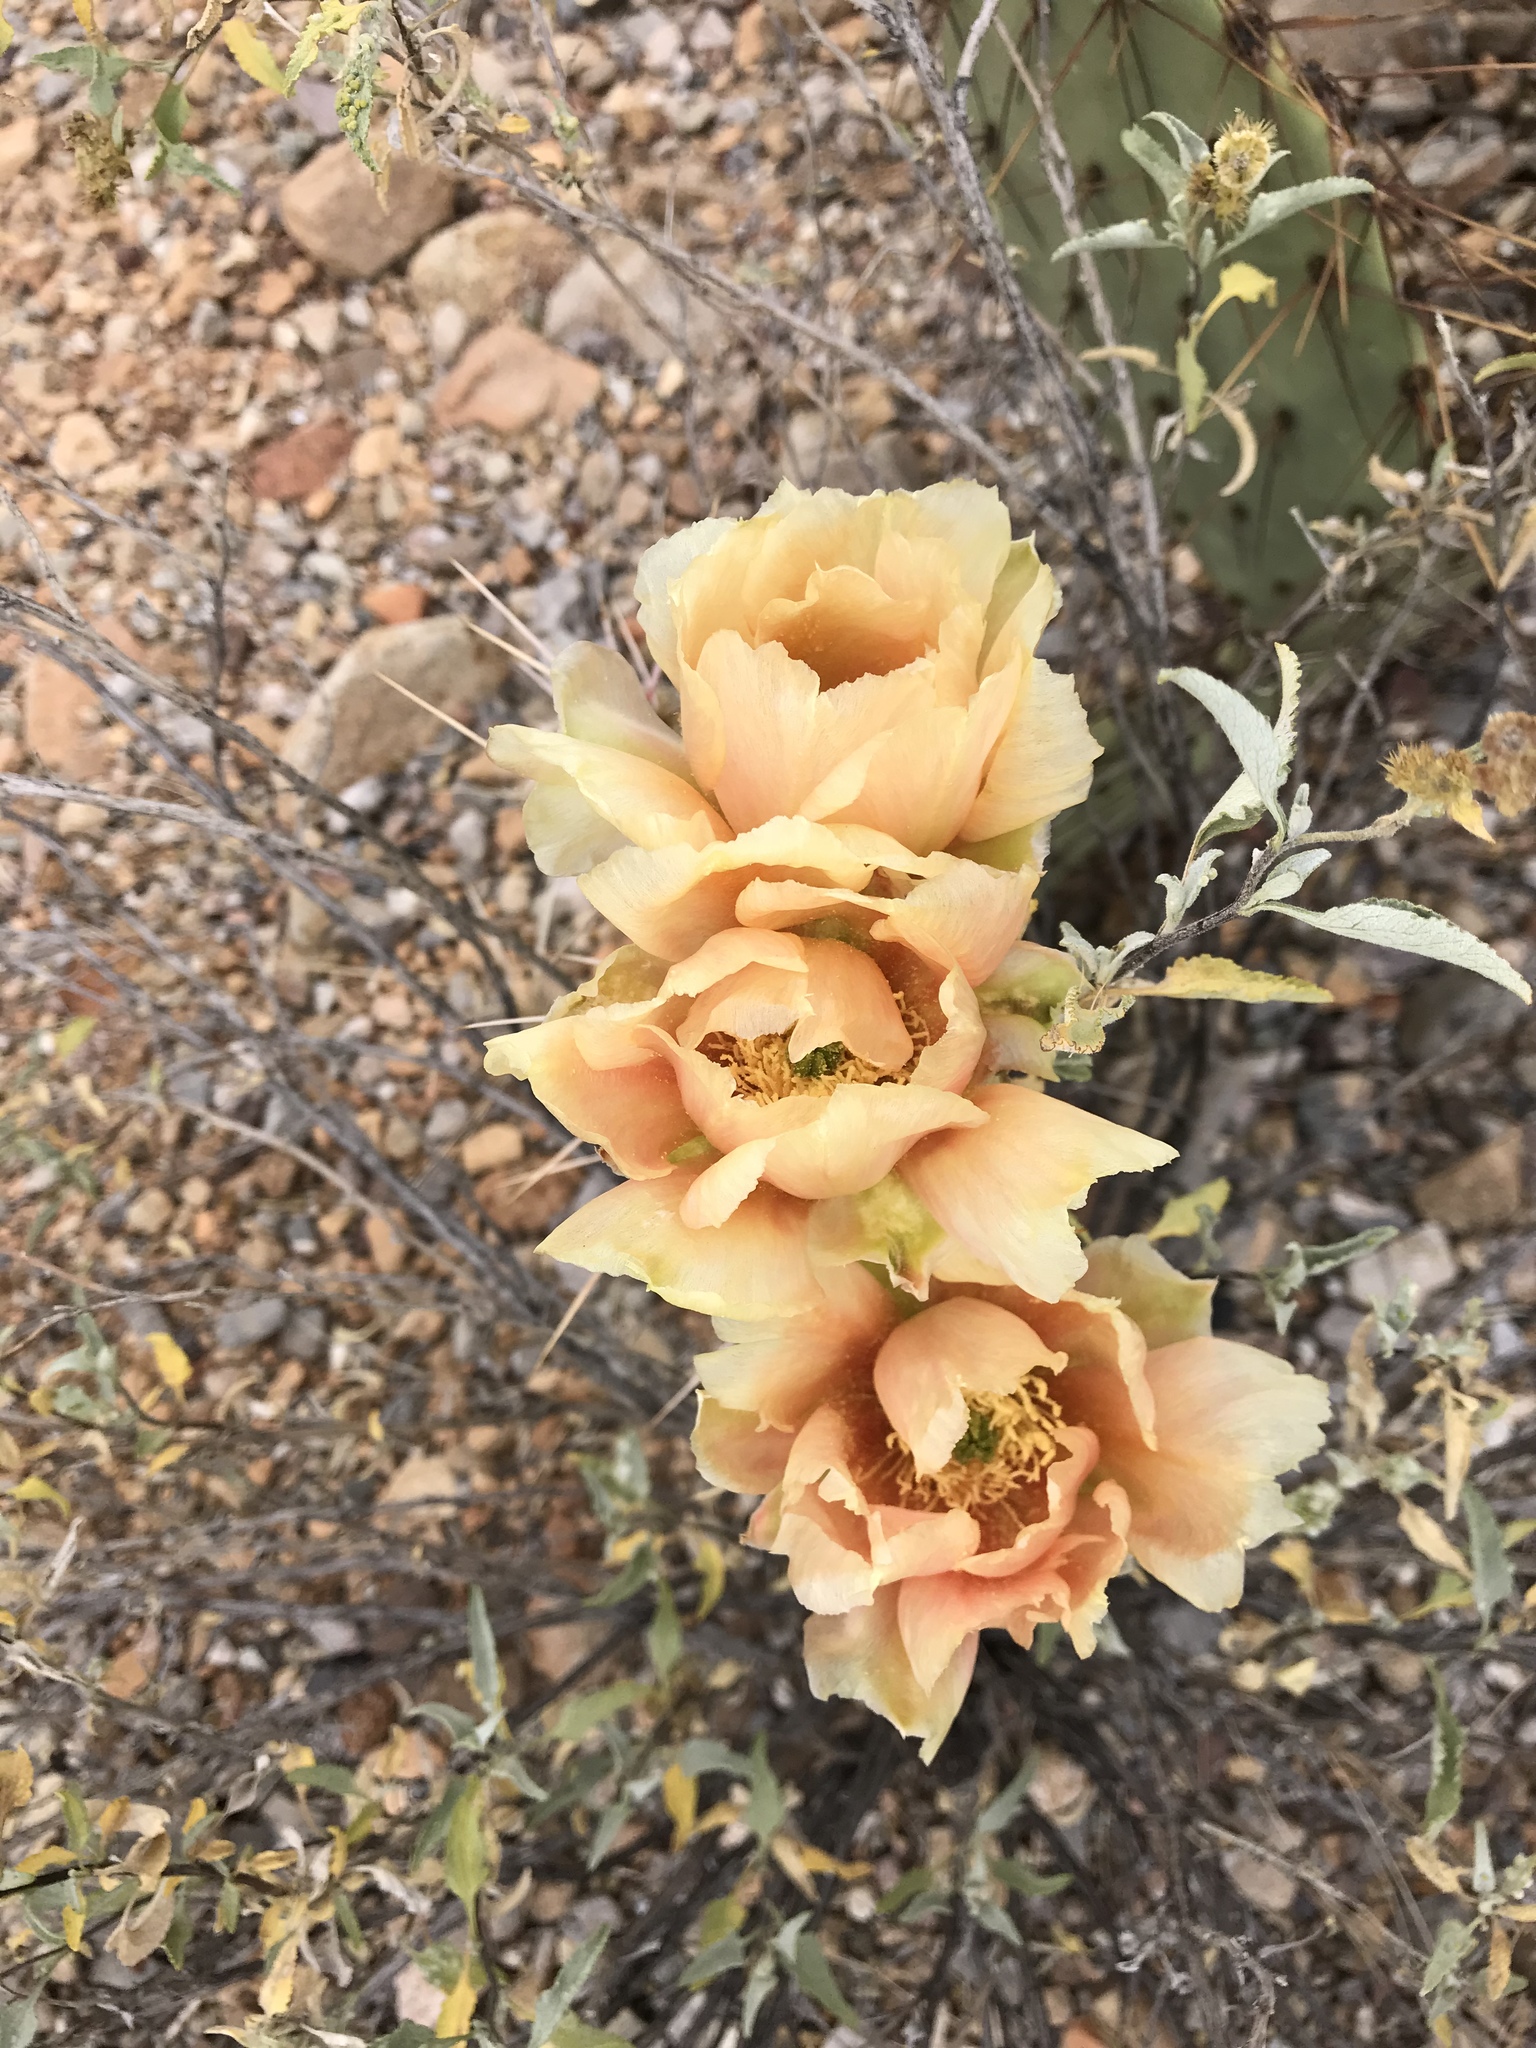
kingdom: Plantae
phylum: Tracheophyta
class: Magnoliopsida
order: Caryophyllales
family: Cactaceae
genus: Opuntia
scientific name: Opuntia phaeacantha
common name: New mexico prickly-pear
